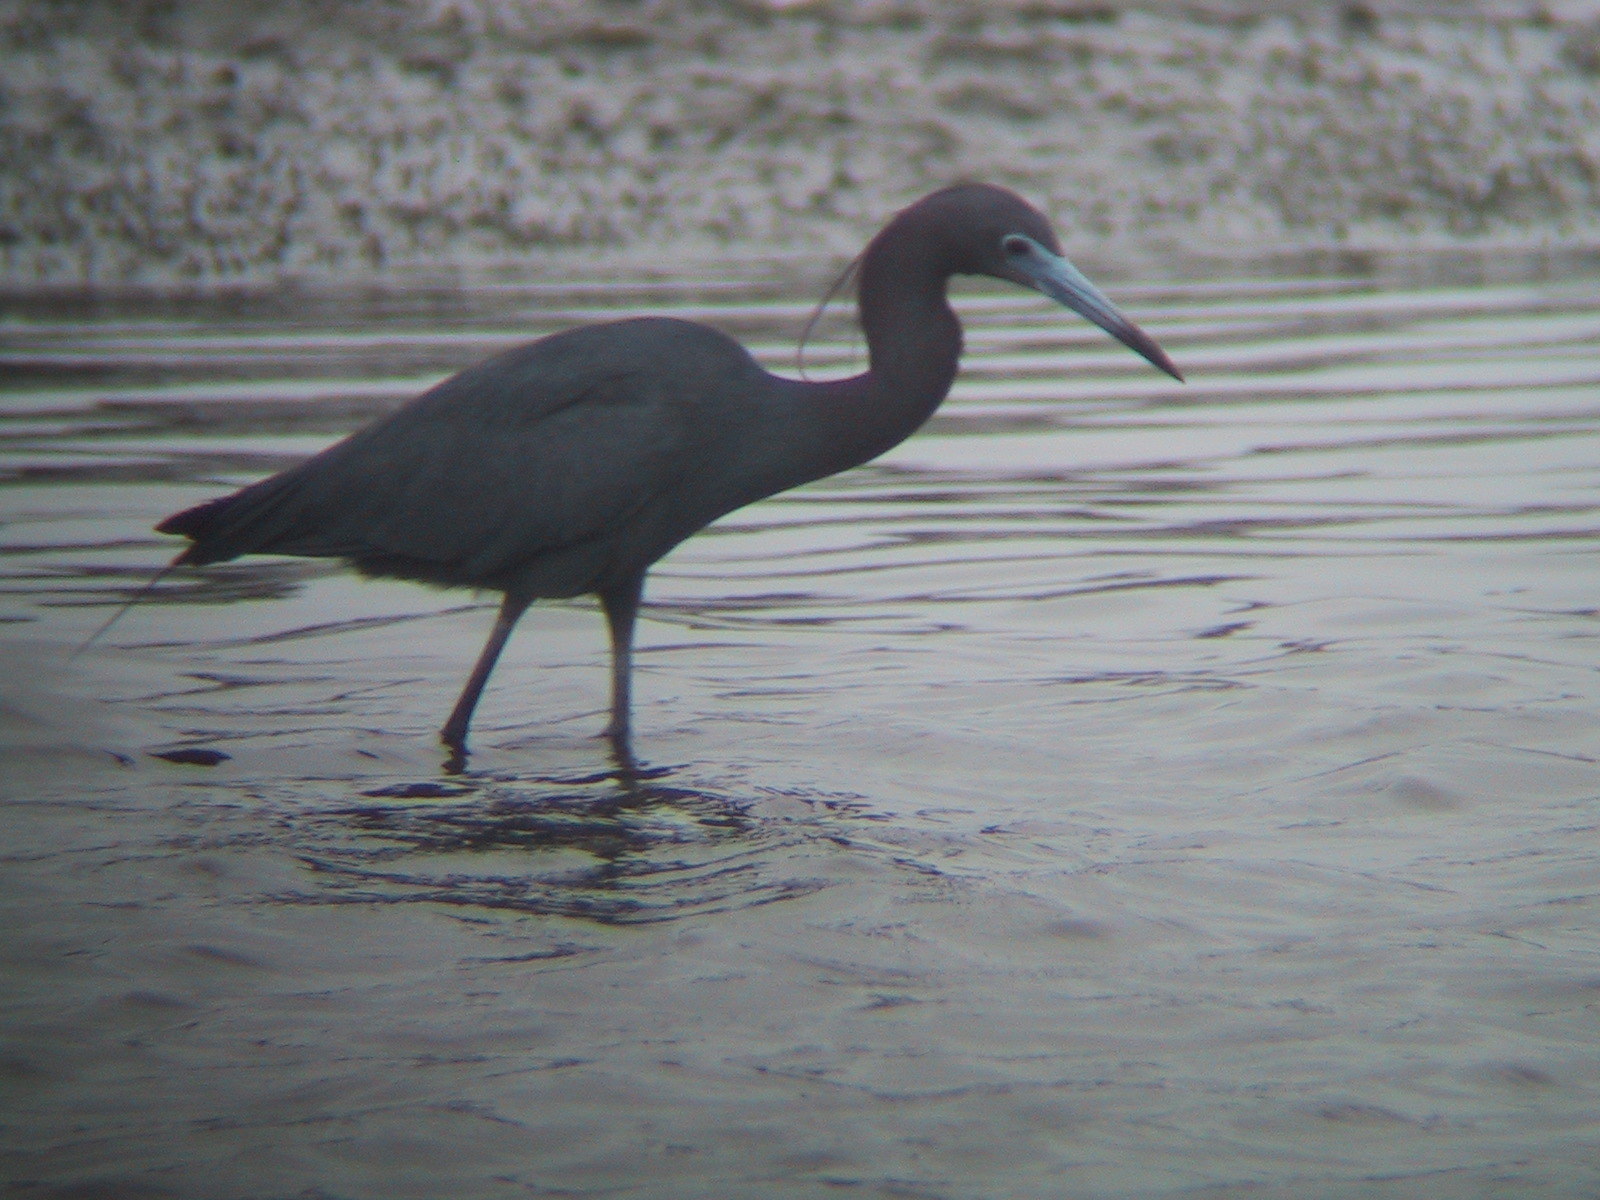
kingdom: Animalia
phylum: Chordata
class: Aves
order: Pelecaniformes
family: Ardeidae
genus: Egretta
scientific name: Egretta caerulea
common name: Little blue heron
